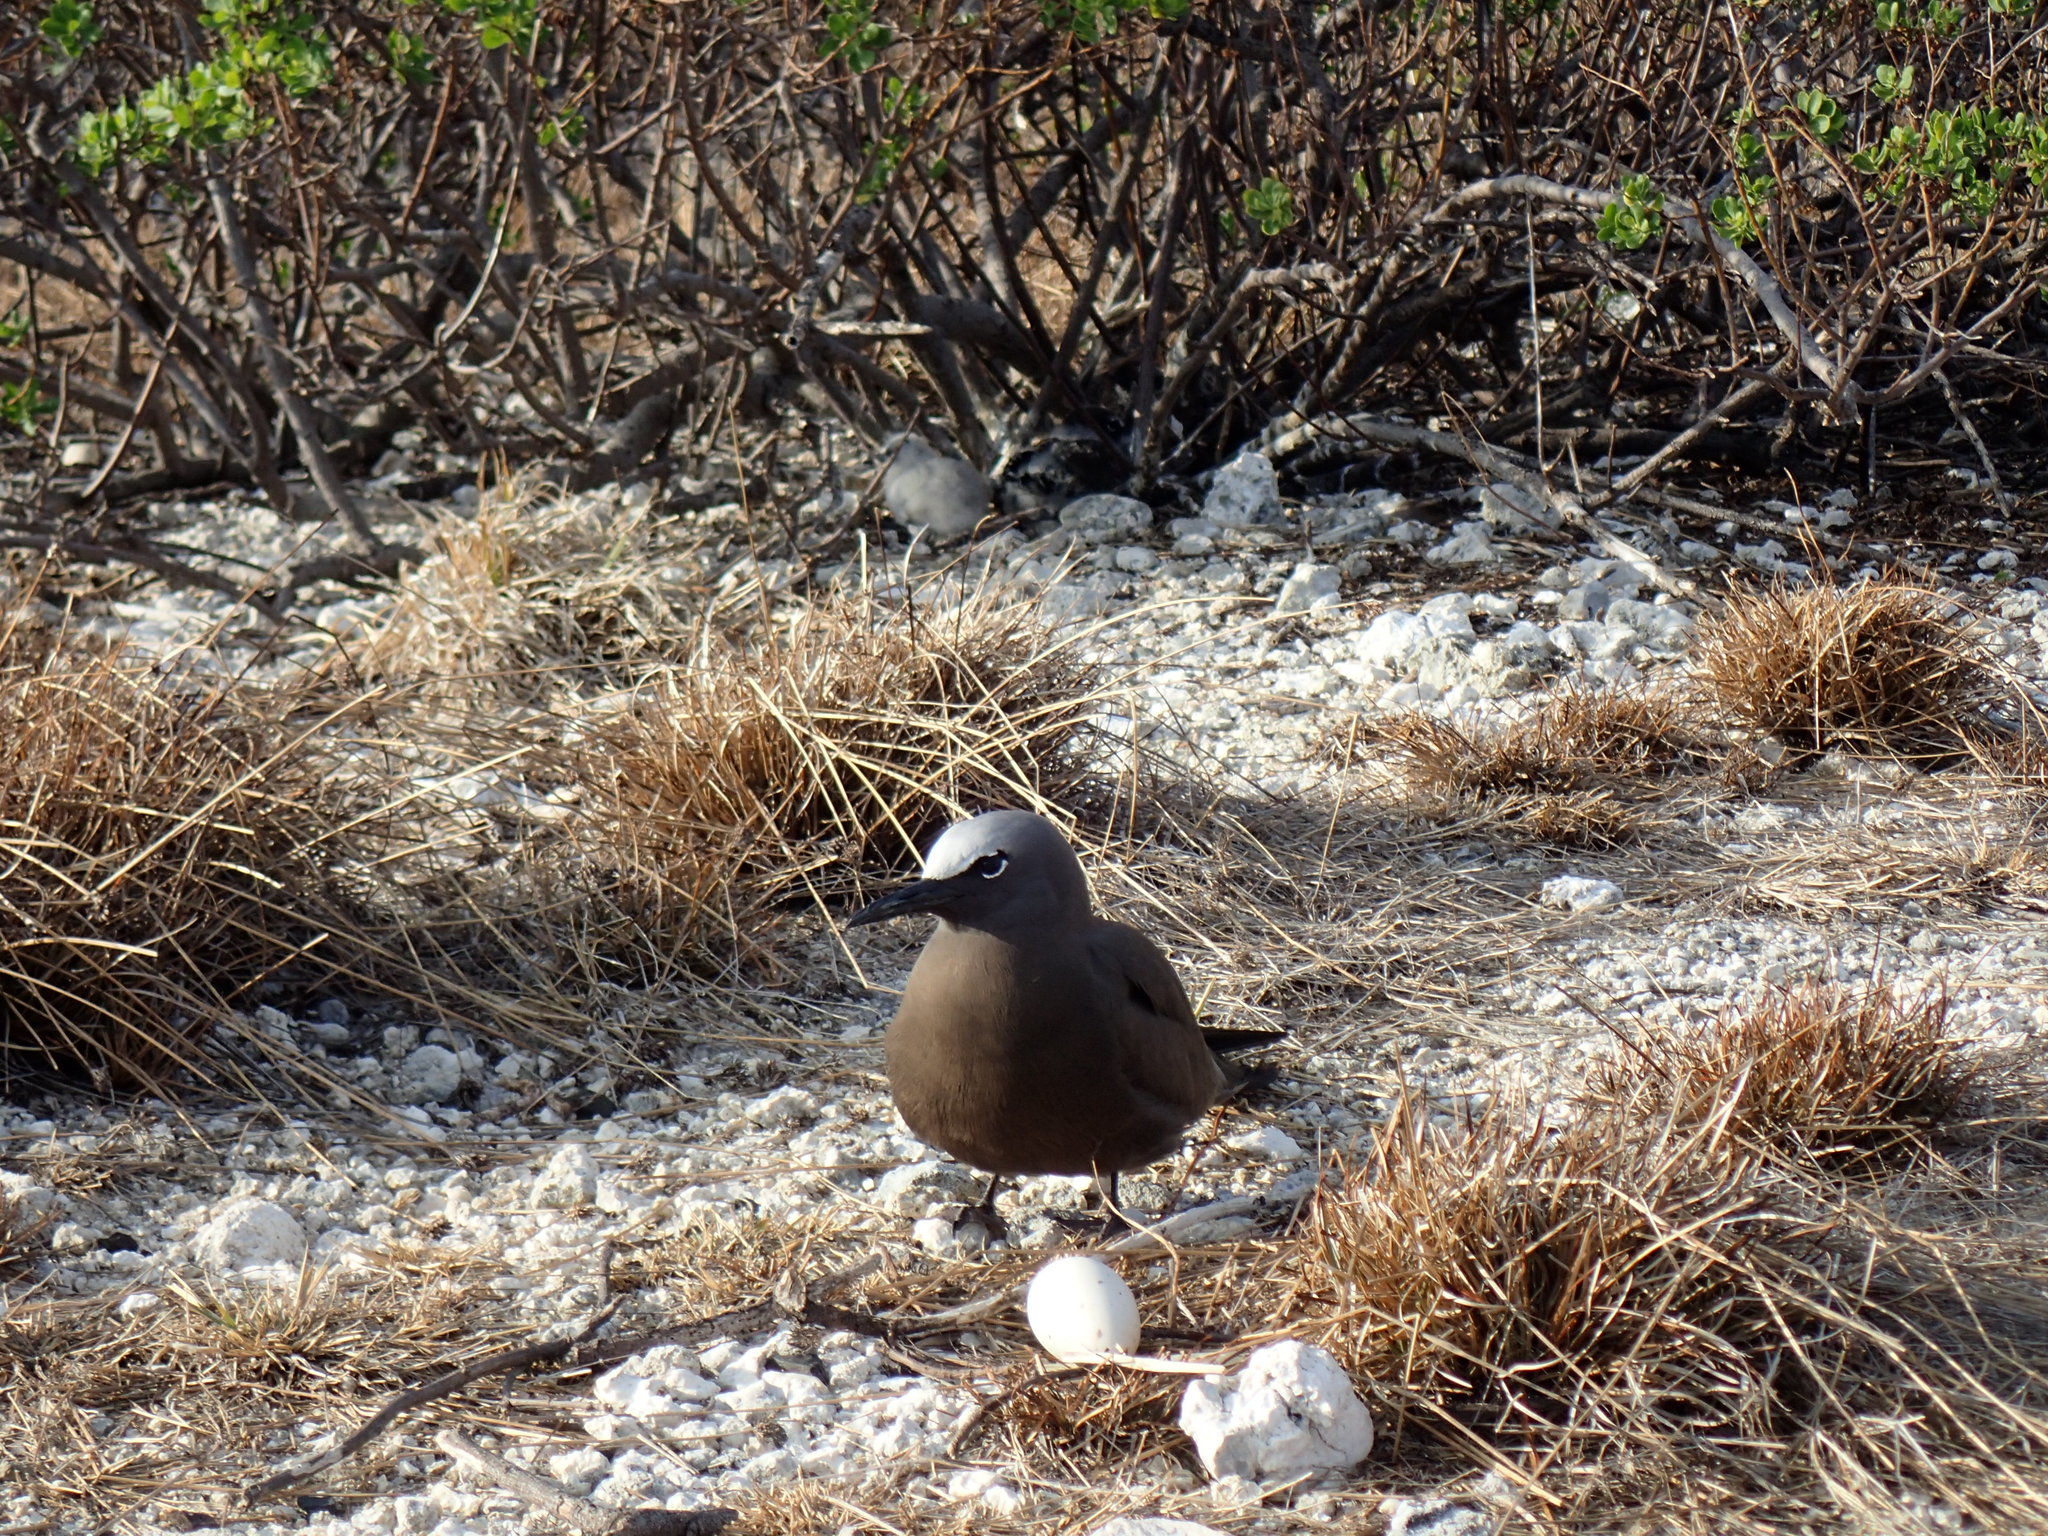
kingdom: Animalia
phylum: Chordata
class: Aves
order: Charadriiformes
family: Laridae
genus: Anous
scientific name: Anous stolidus
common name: Brown noddy
